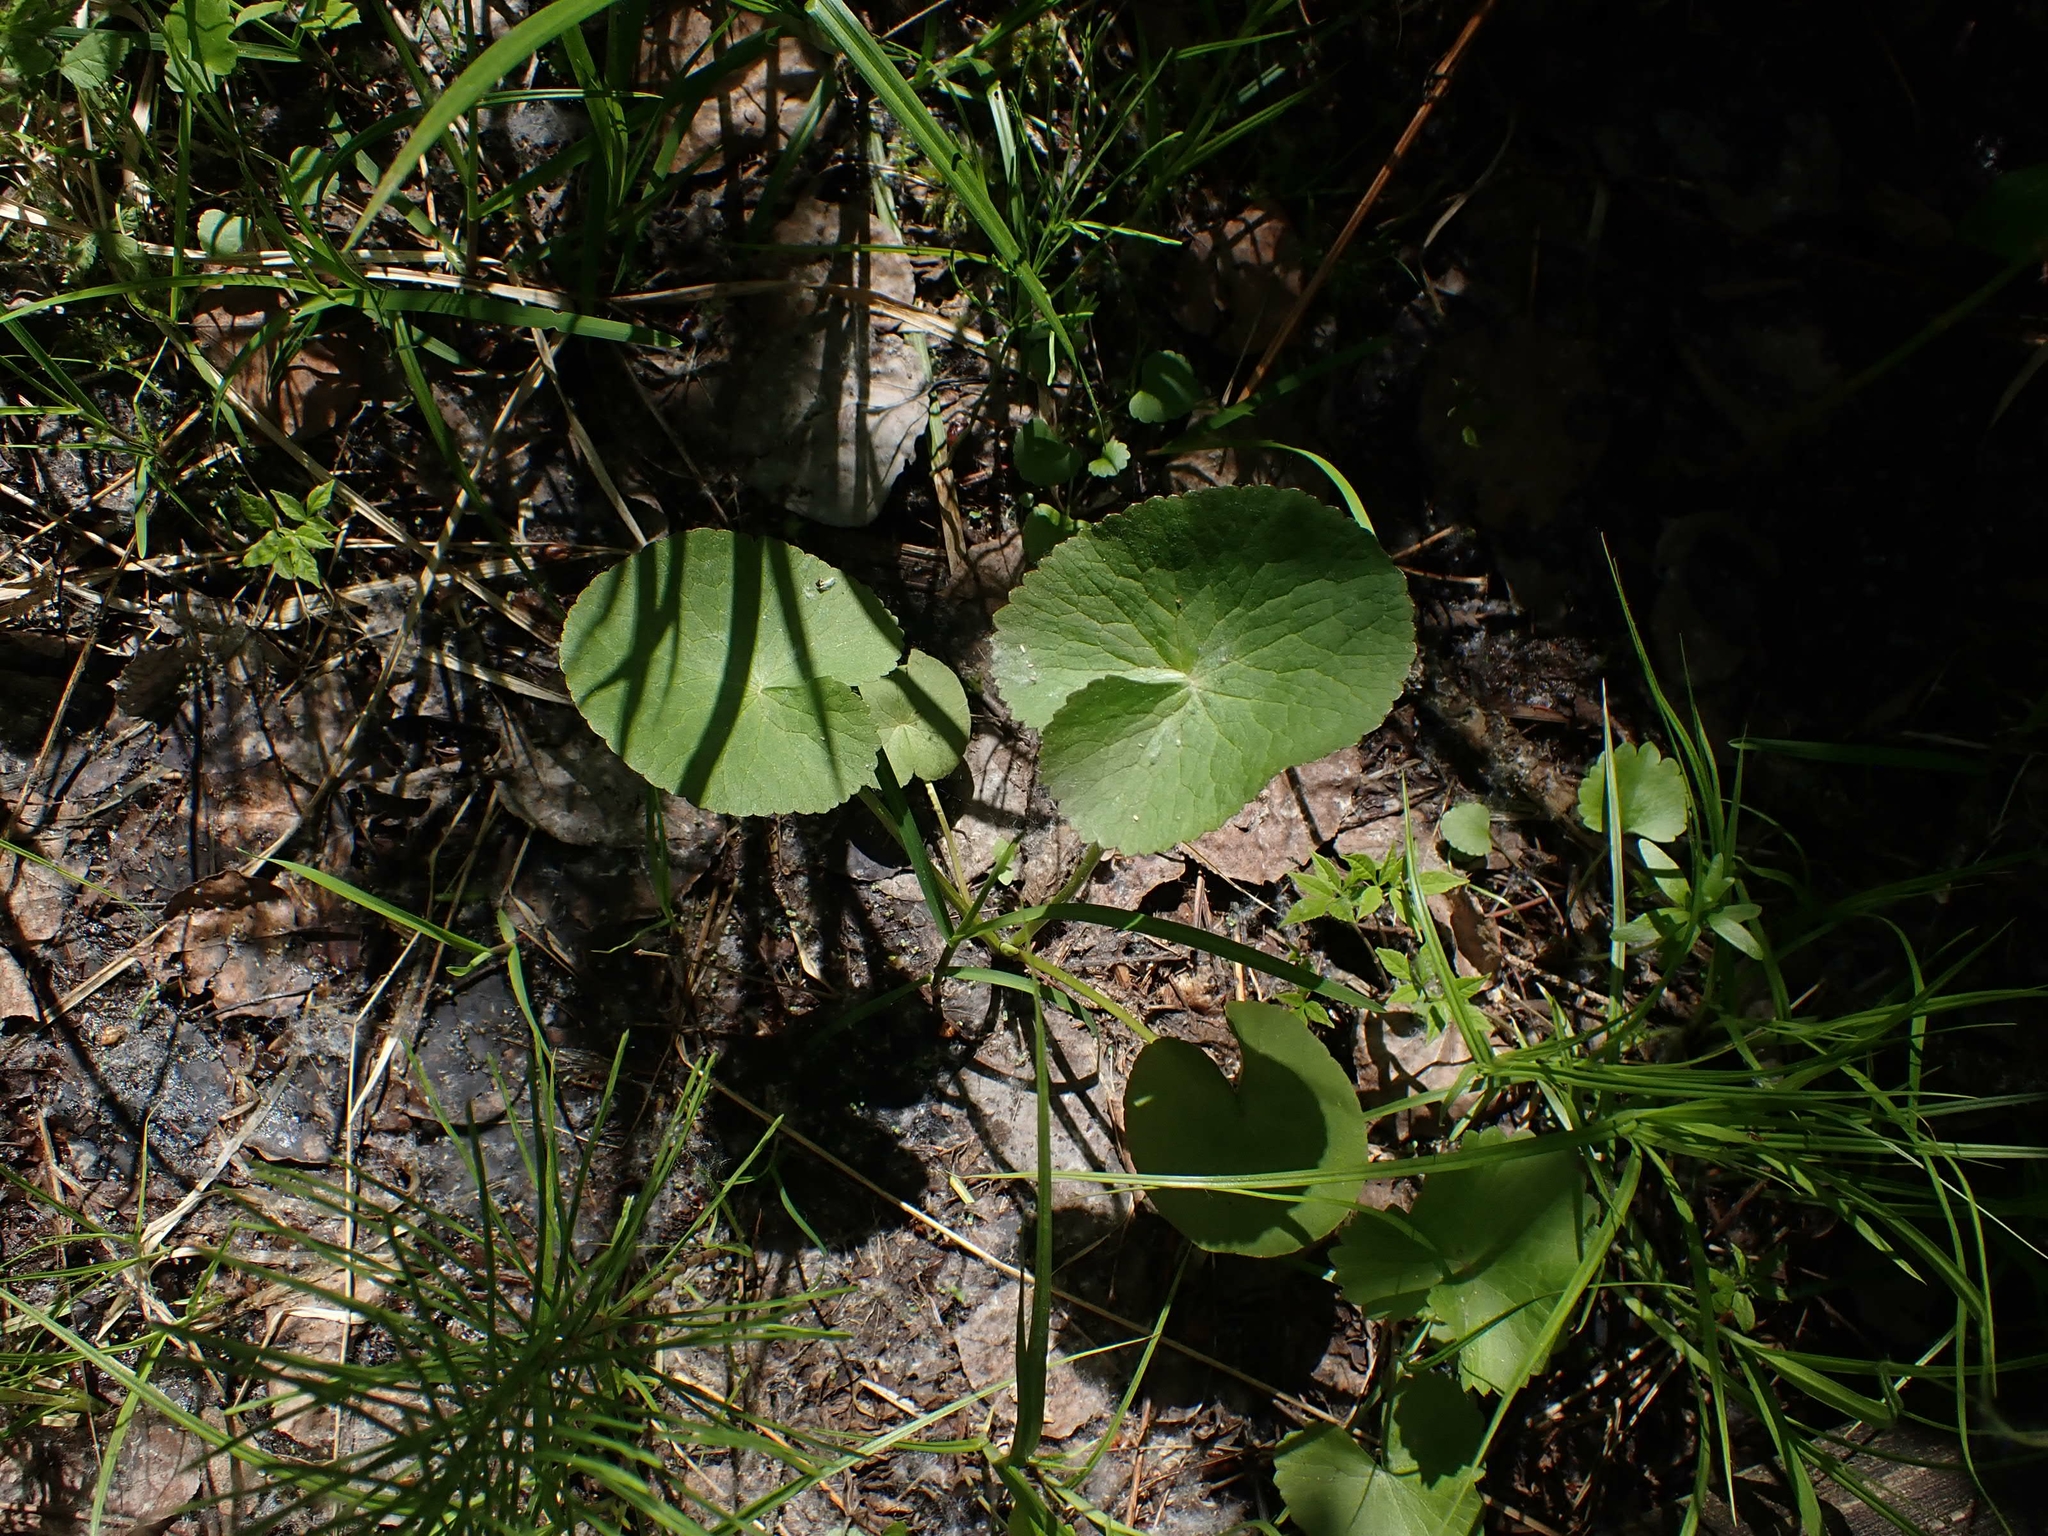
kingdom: Plantae
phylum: Tracheophyta
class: Magnoliopsida
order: Ranunculales
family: Ranunculaceae
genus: Caltha
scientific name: Caltha palustris
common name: Marsh marigold
